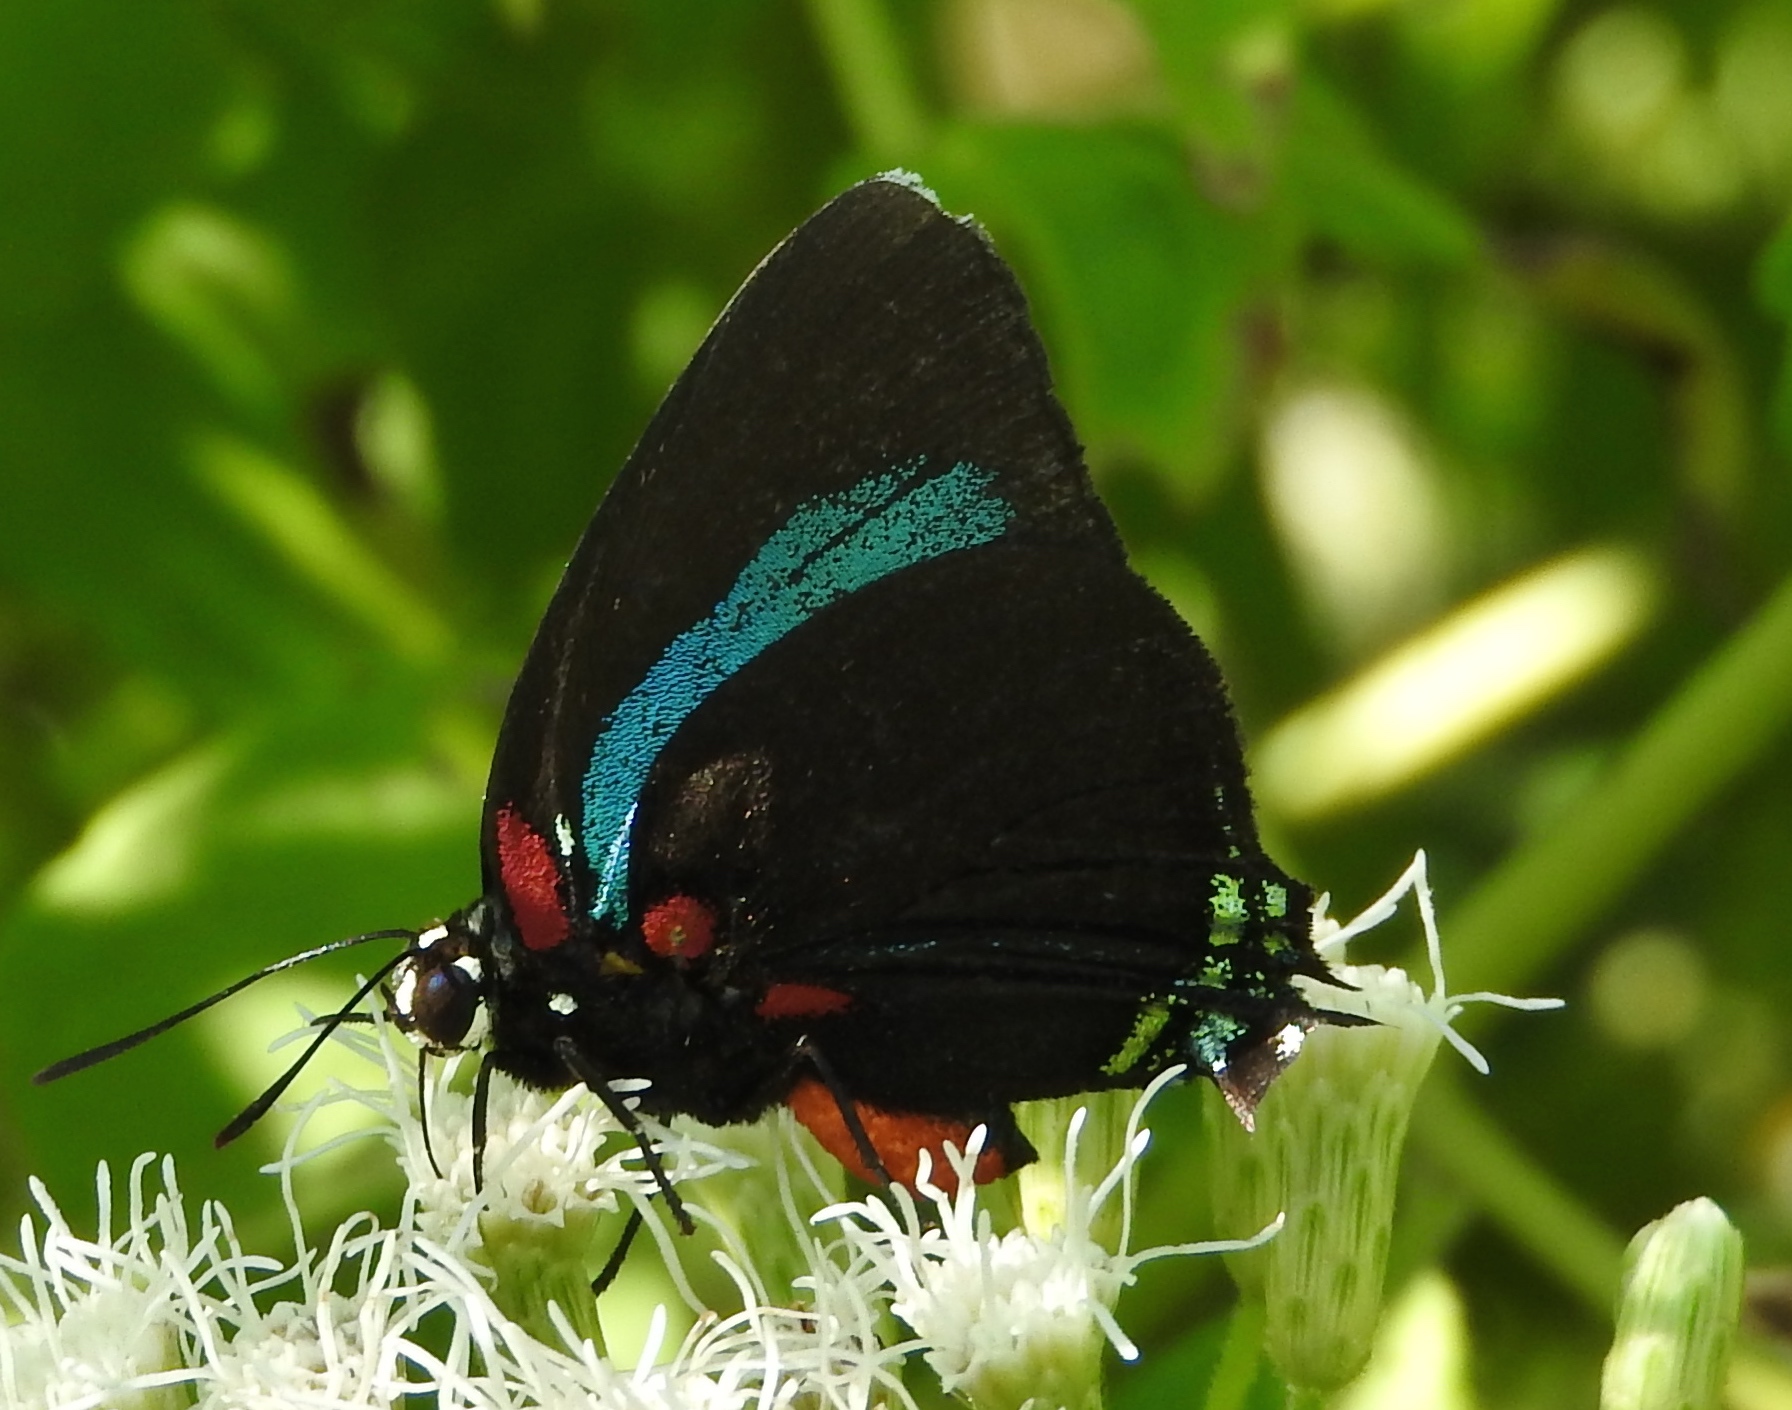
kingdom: Animalia
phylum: Arthropoda
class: Insecta
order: Lepidoptera
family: Lycaenidae
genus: Atlides
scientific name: Atlides
